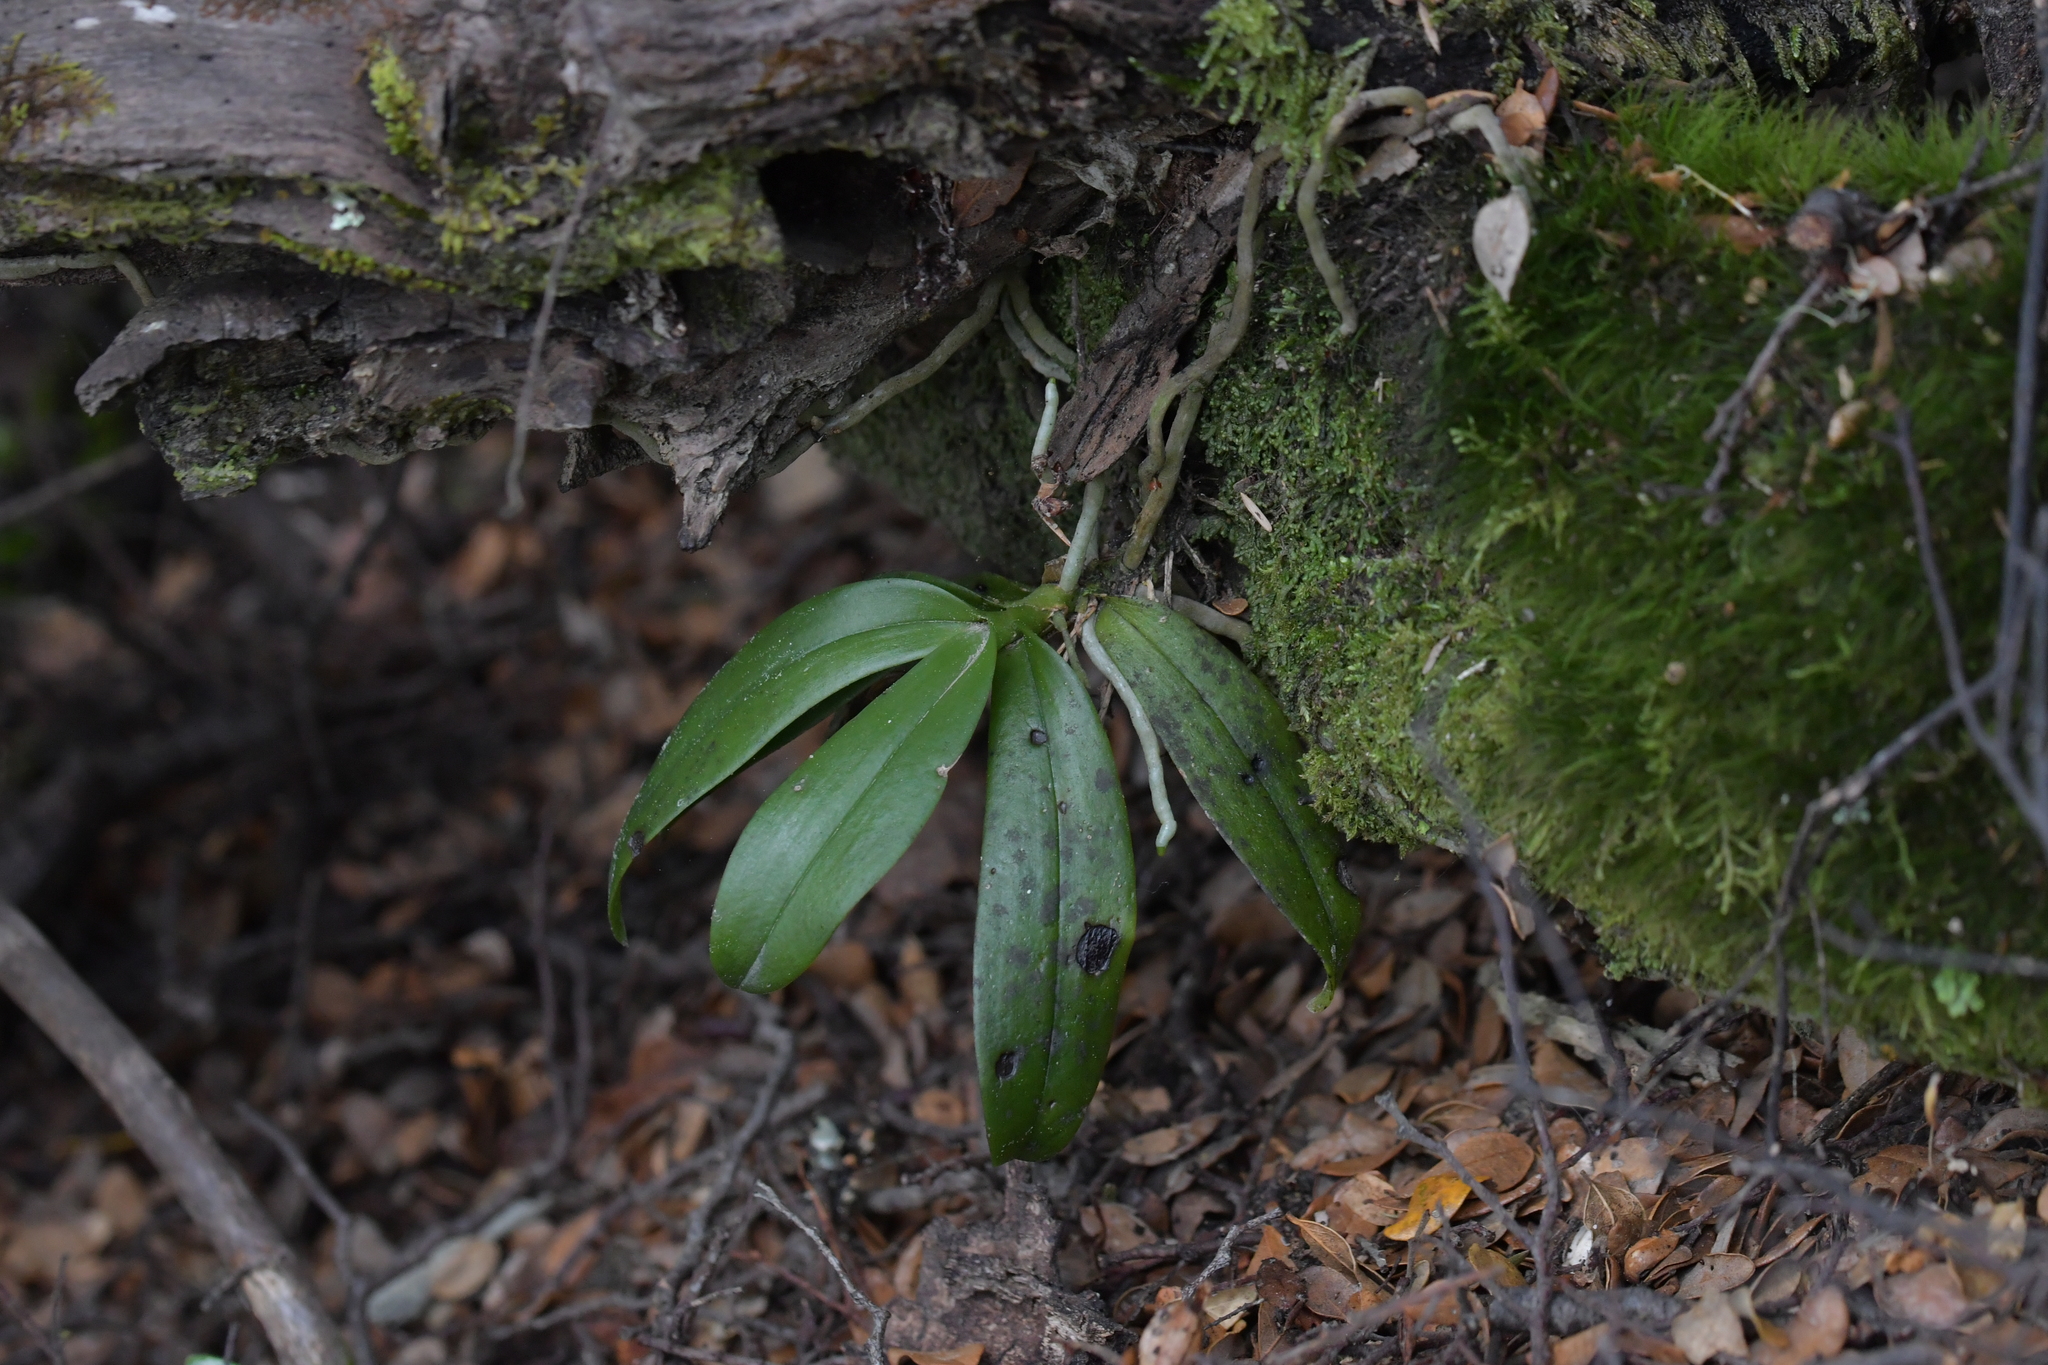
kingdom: Plantae
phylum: Tracheophyta
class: Liliopsida
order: Asparagales
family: Orchidaceae
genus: Drymoanthus
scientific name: Drymoanthus adversus
